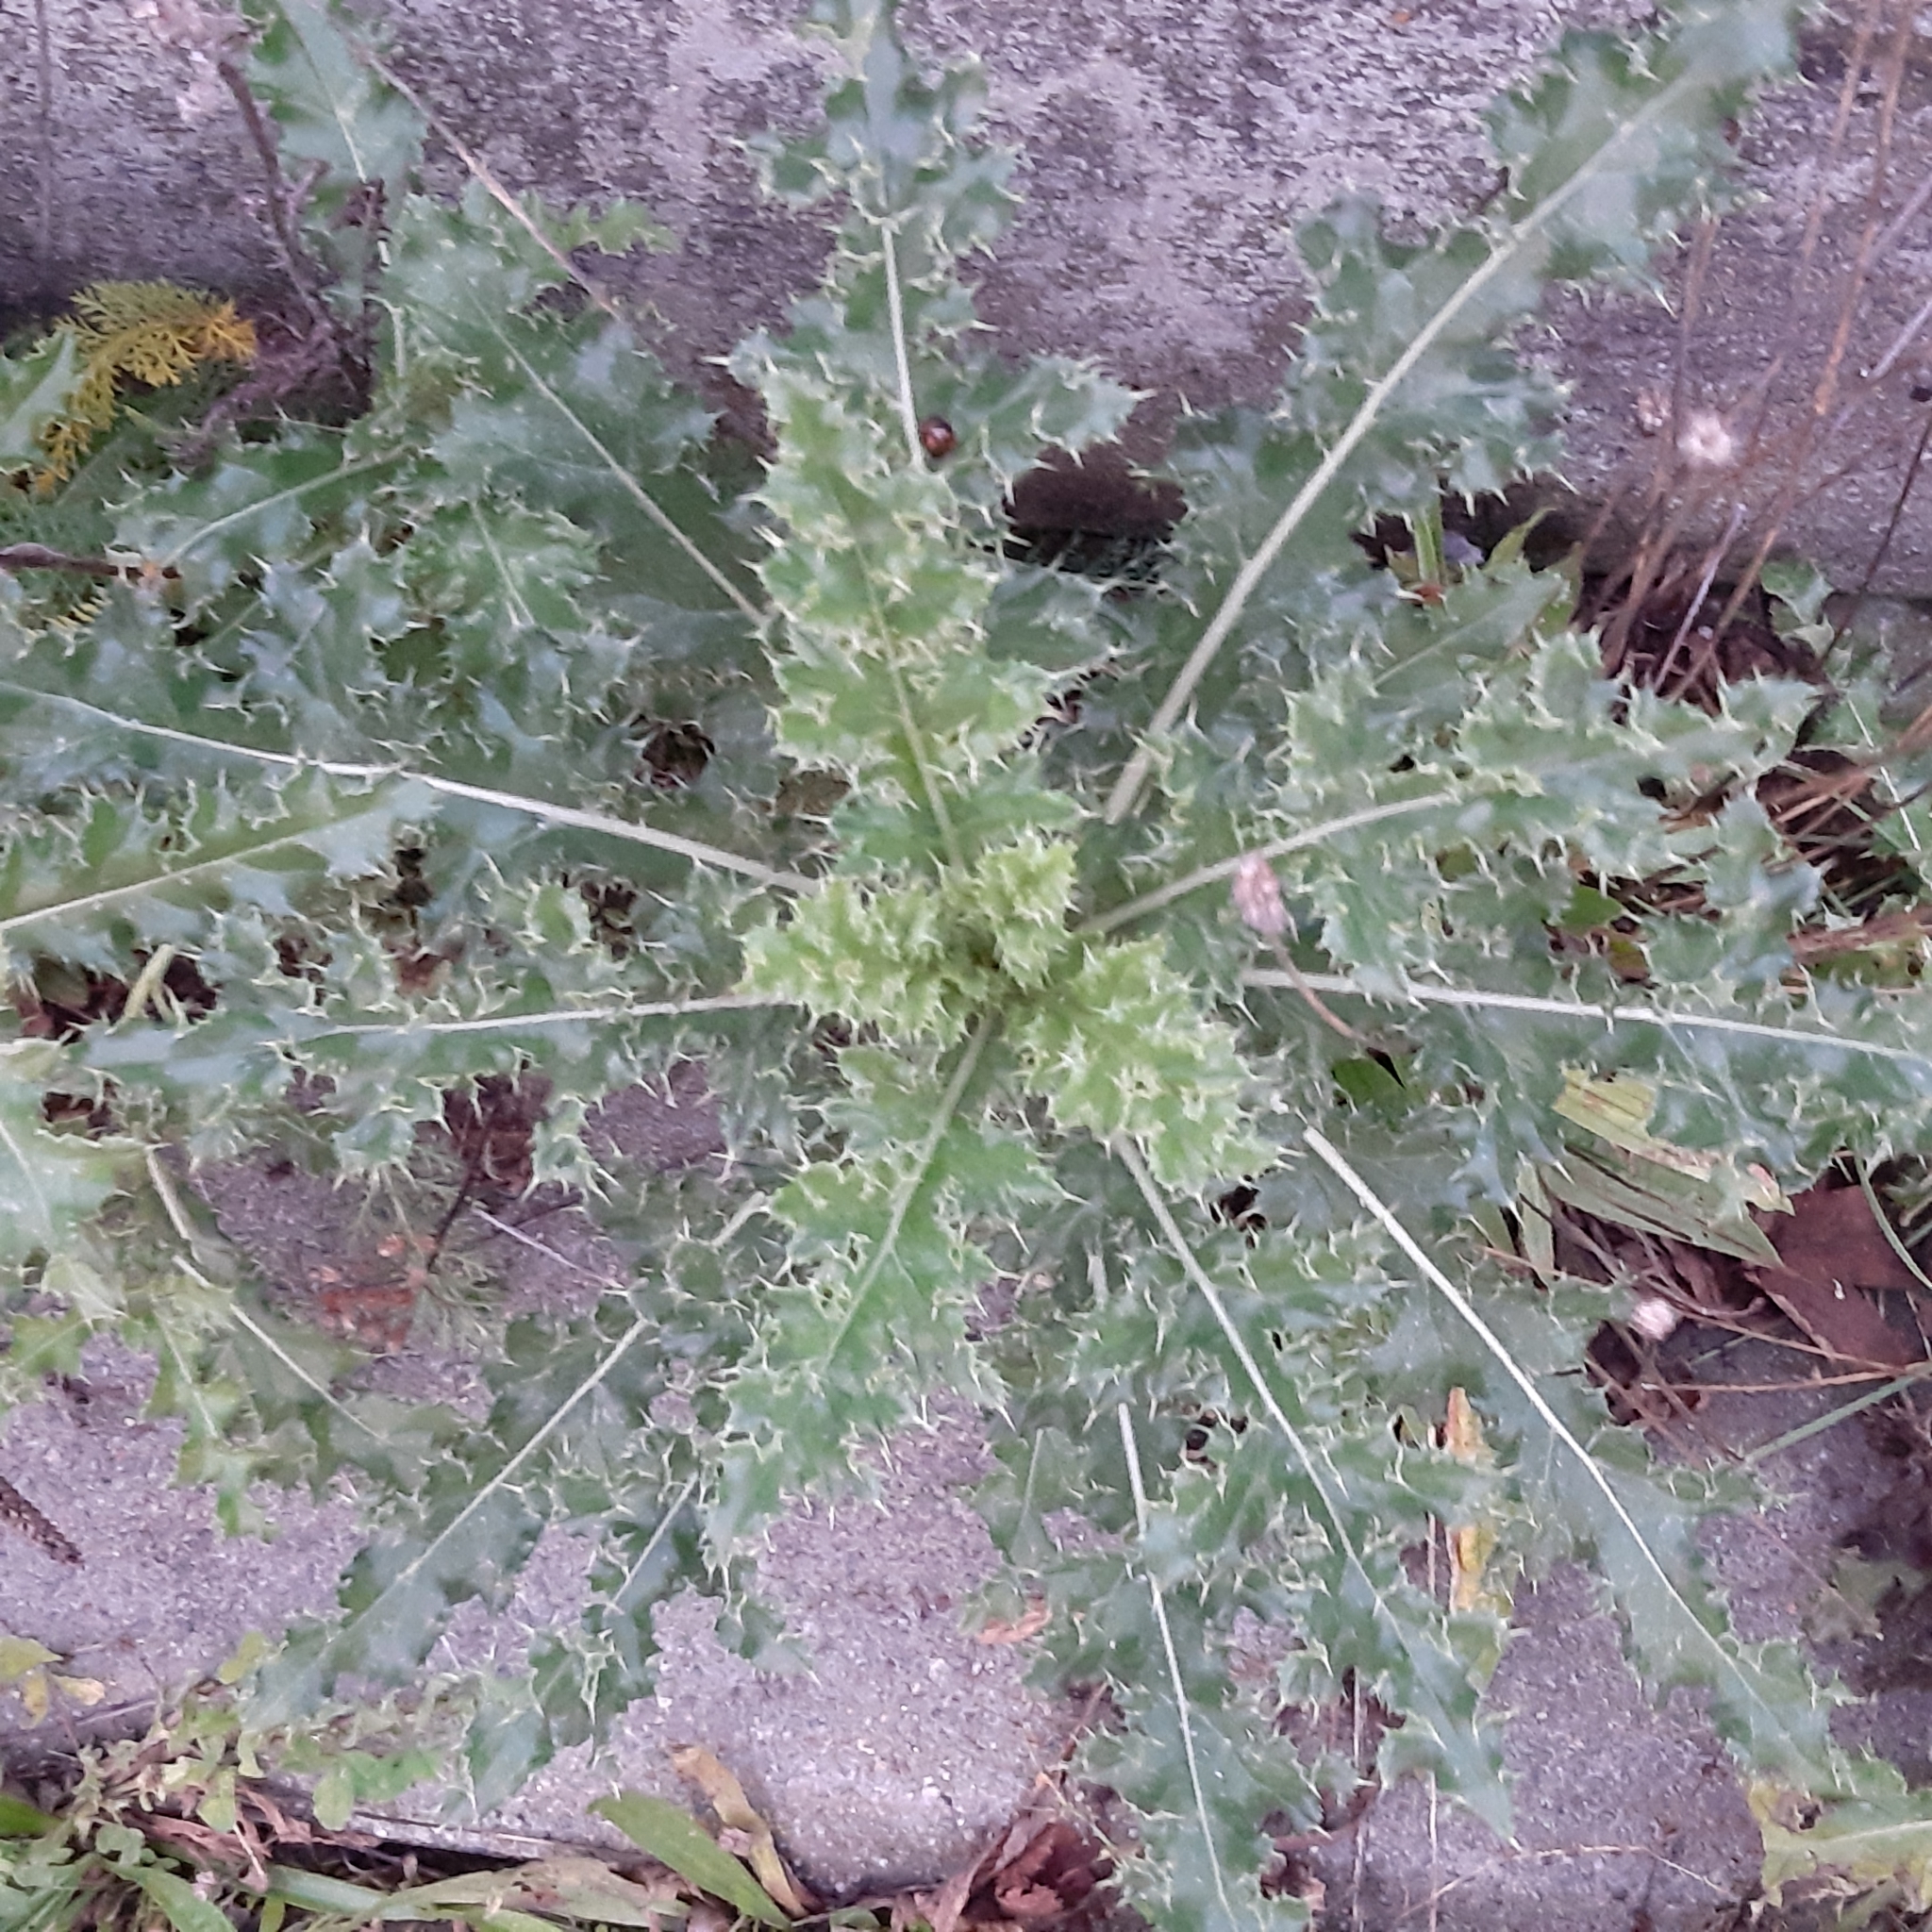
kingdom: Plantae
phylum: Tracheophyta
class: Magnoliopsida
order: Asterales
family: Asteraceae
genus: Cirsium
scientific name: Cirsium arvense
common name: Creeping thistle
